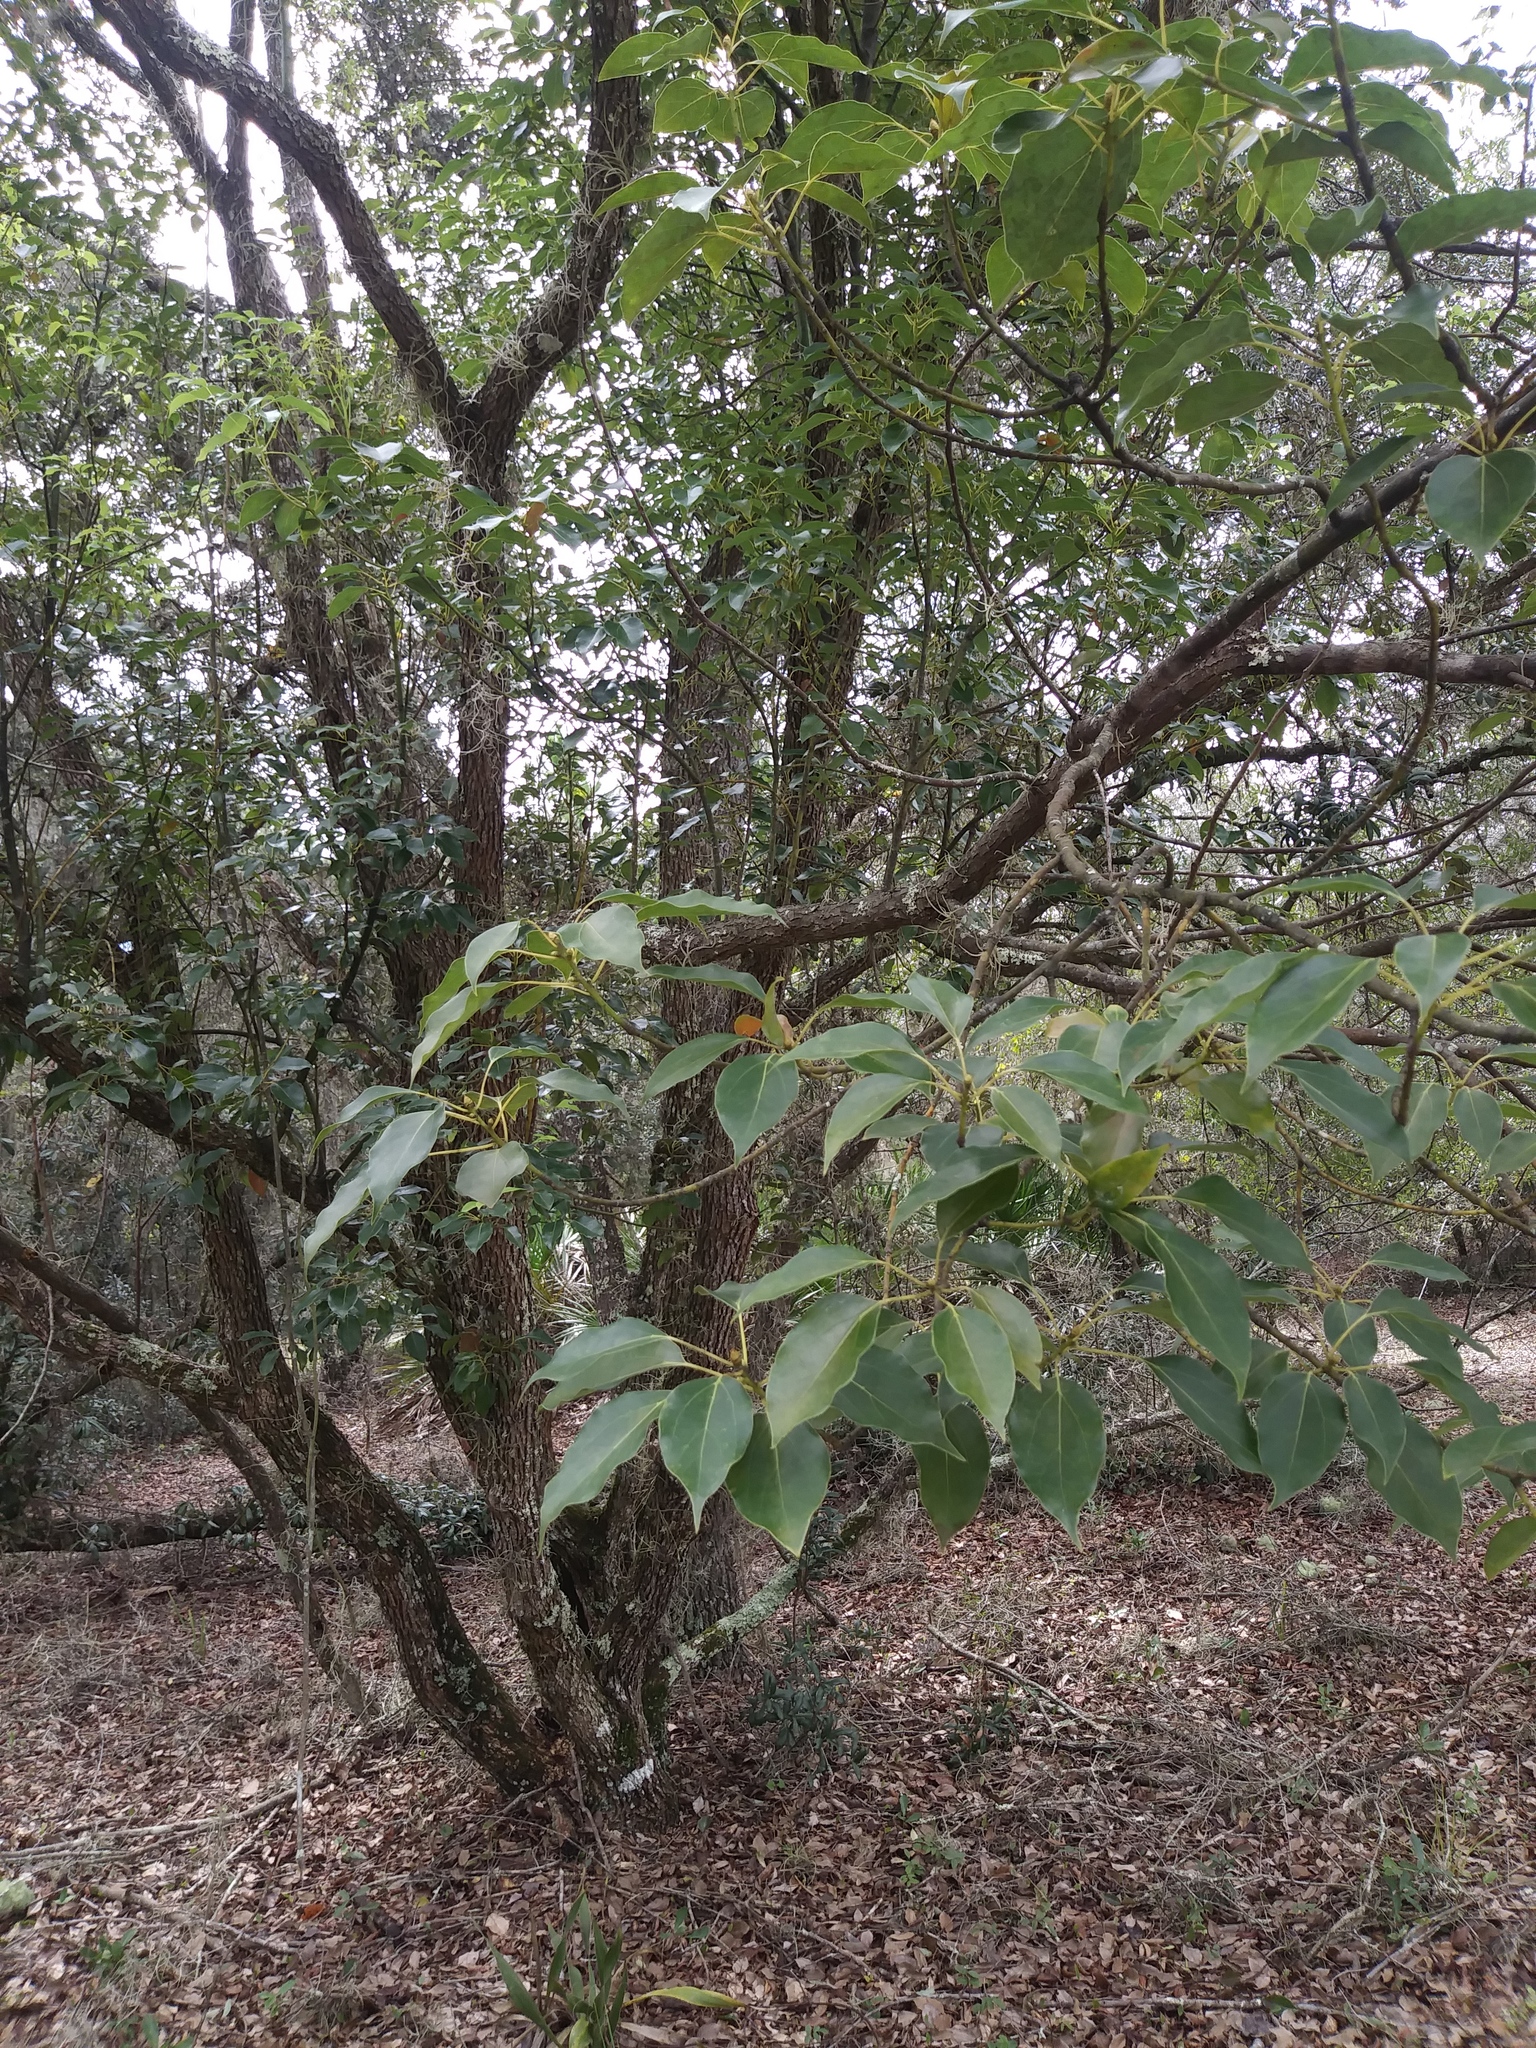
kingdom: Plantae
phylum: Tracheophyta
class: Magnoliopsida
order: Laurales
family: Lauraceae
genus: Cinnamomum
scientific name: Cinnamomum camphora
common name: Camphortree
